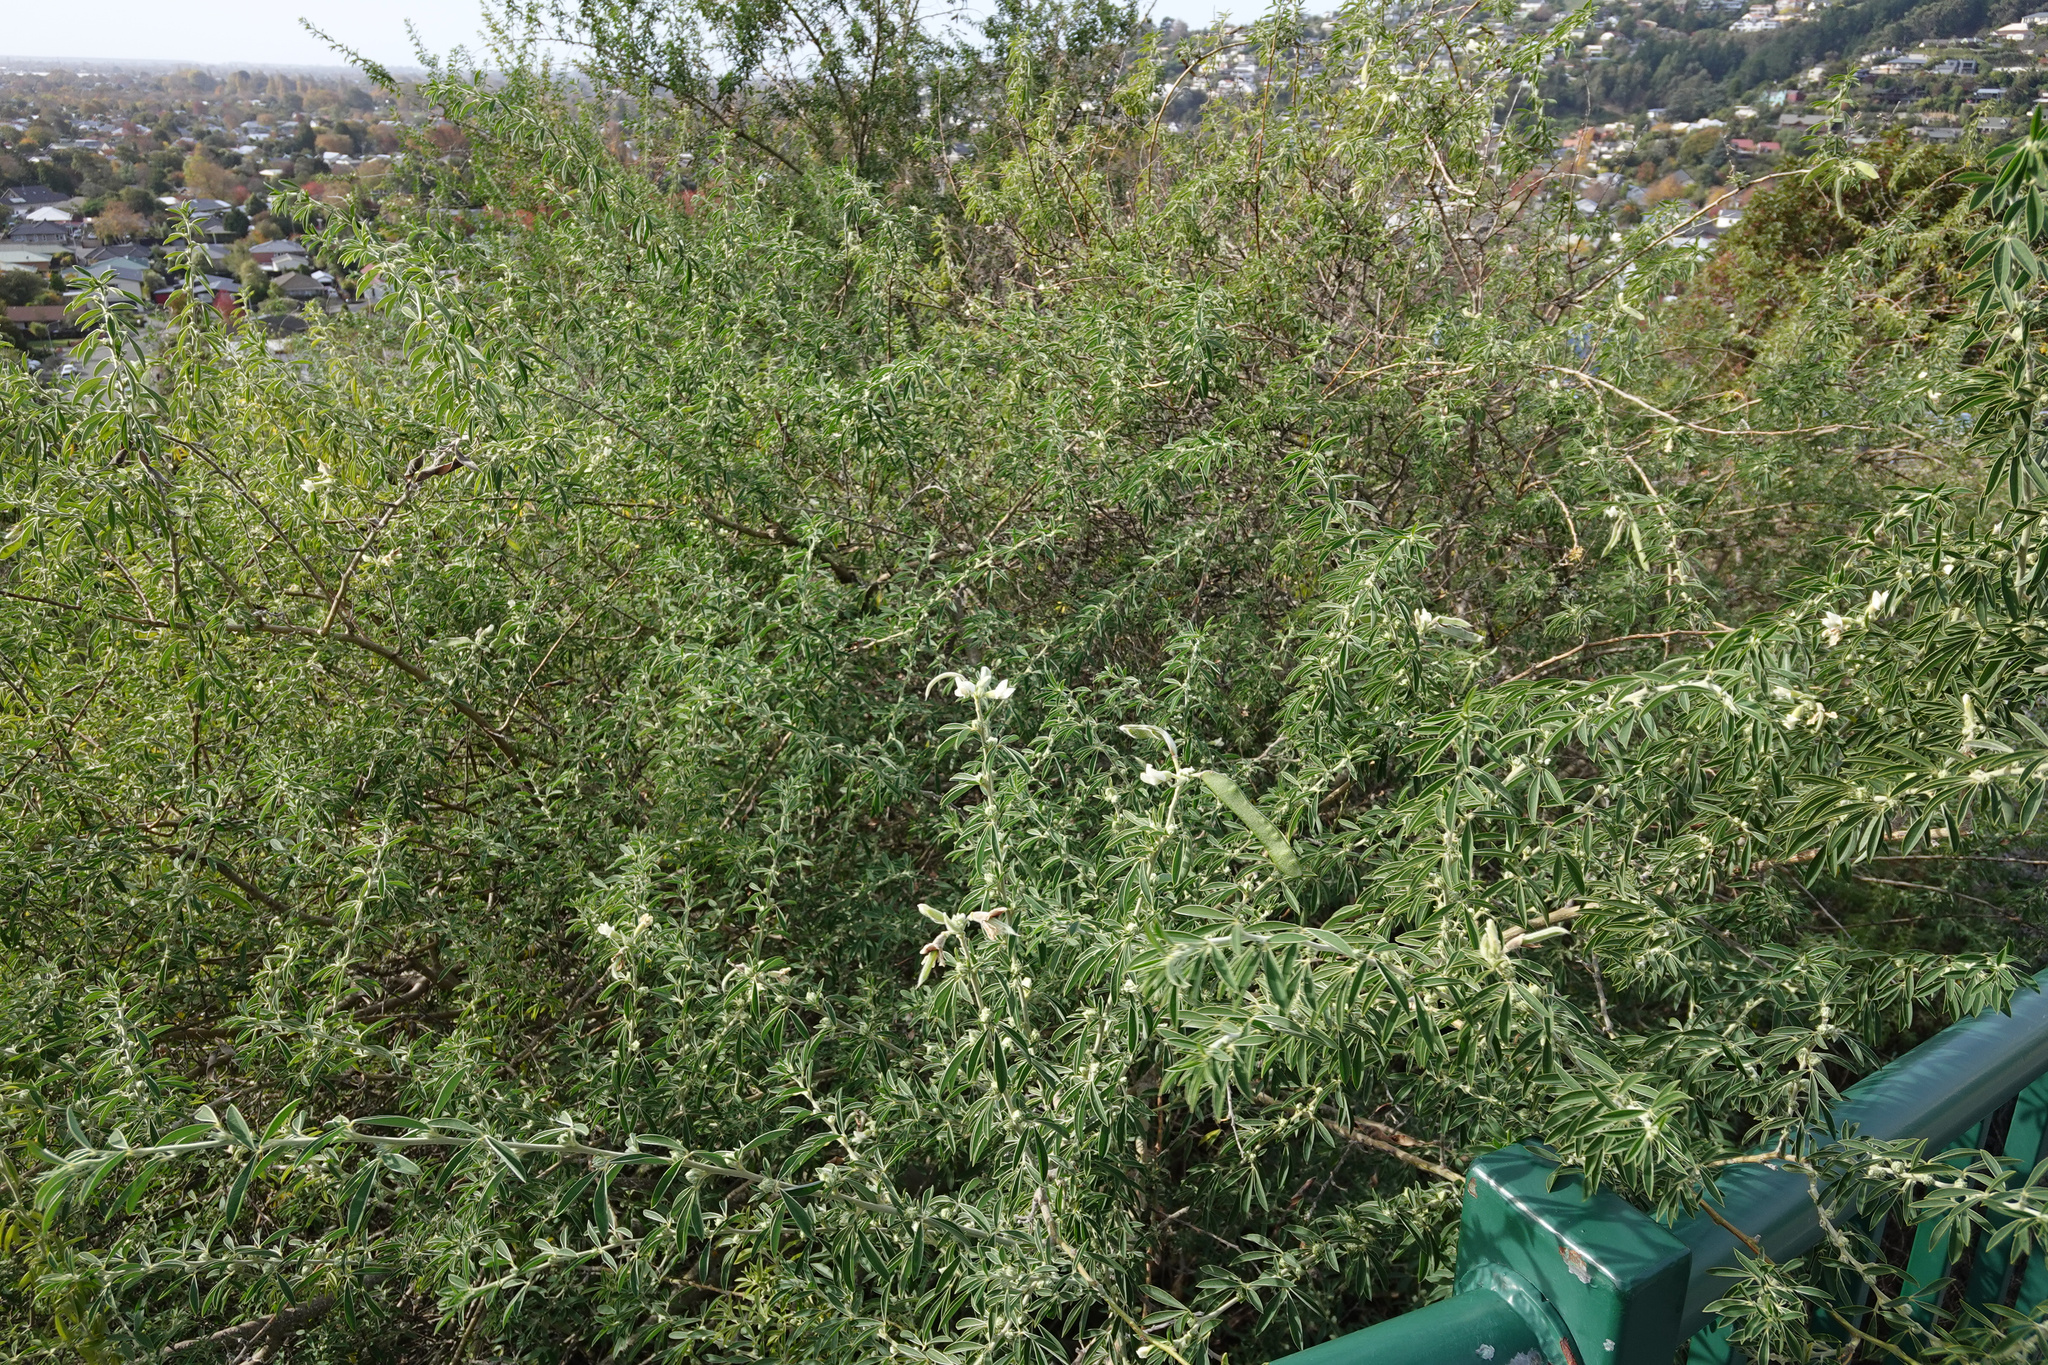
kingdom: Plantae
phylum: Tracheophyta
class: Magnoliopsida
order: Fabales
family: Fabaceae
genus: Chamaecytisus
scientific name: Chamaecytisus prolifer
